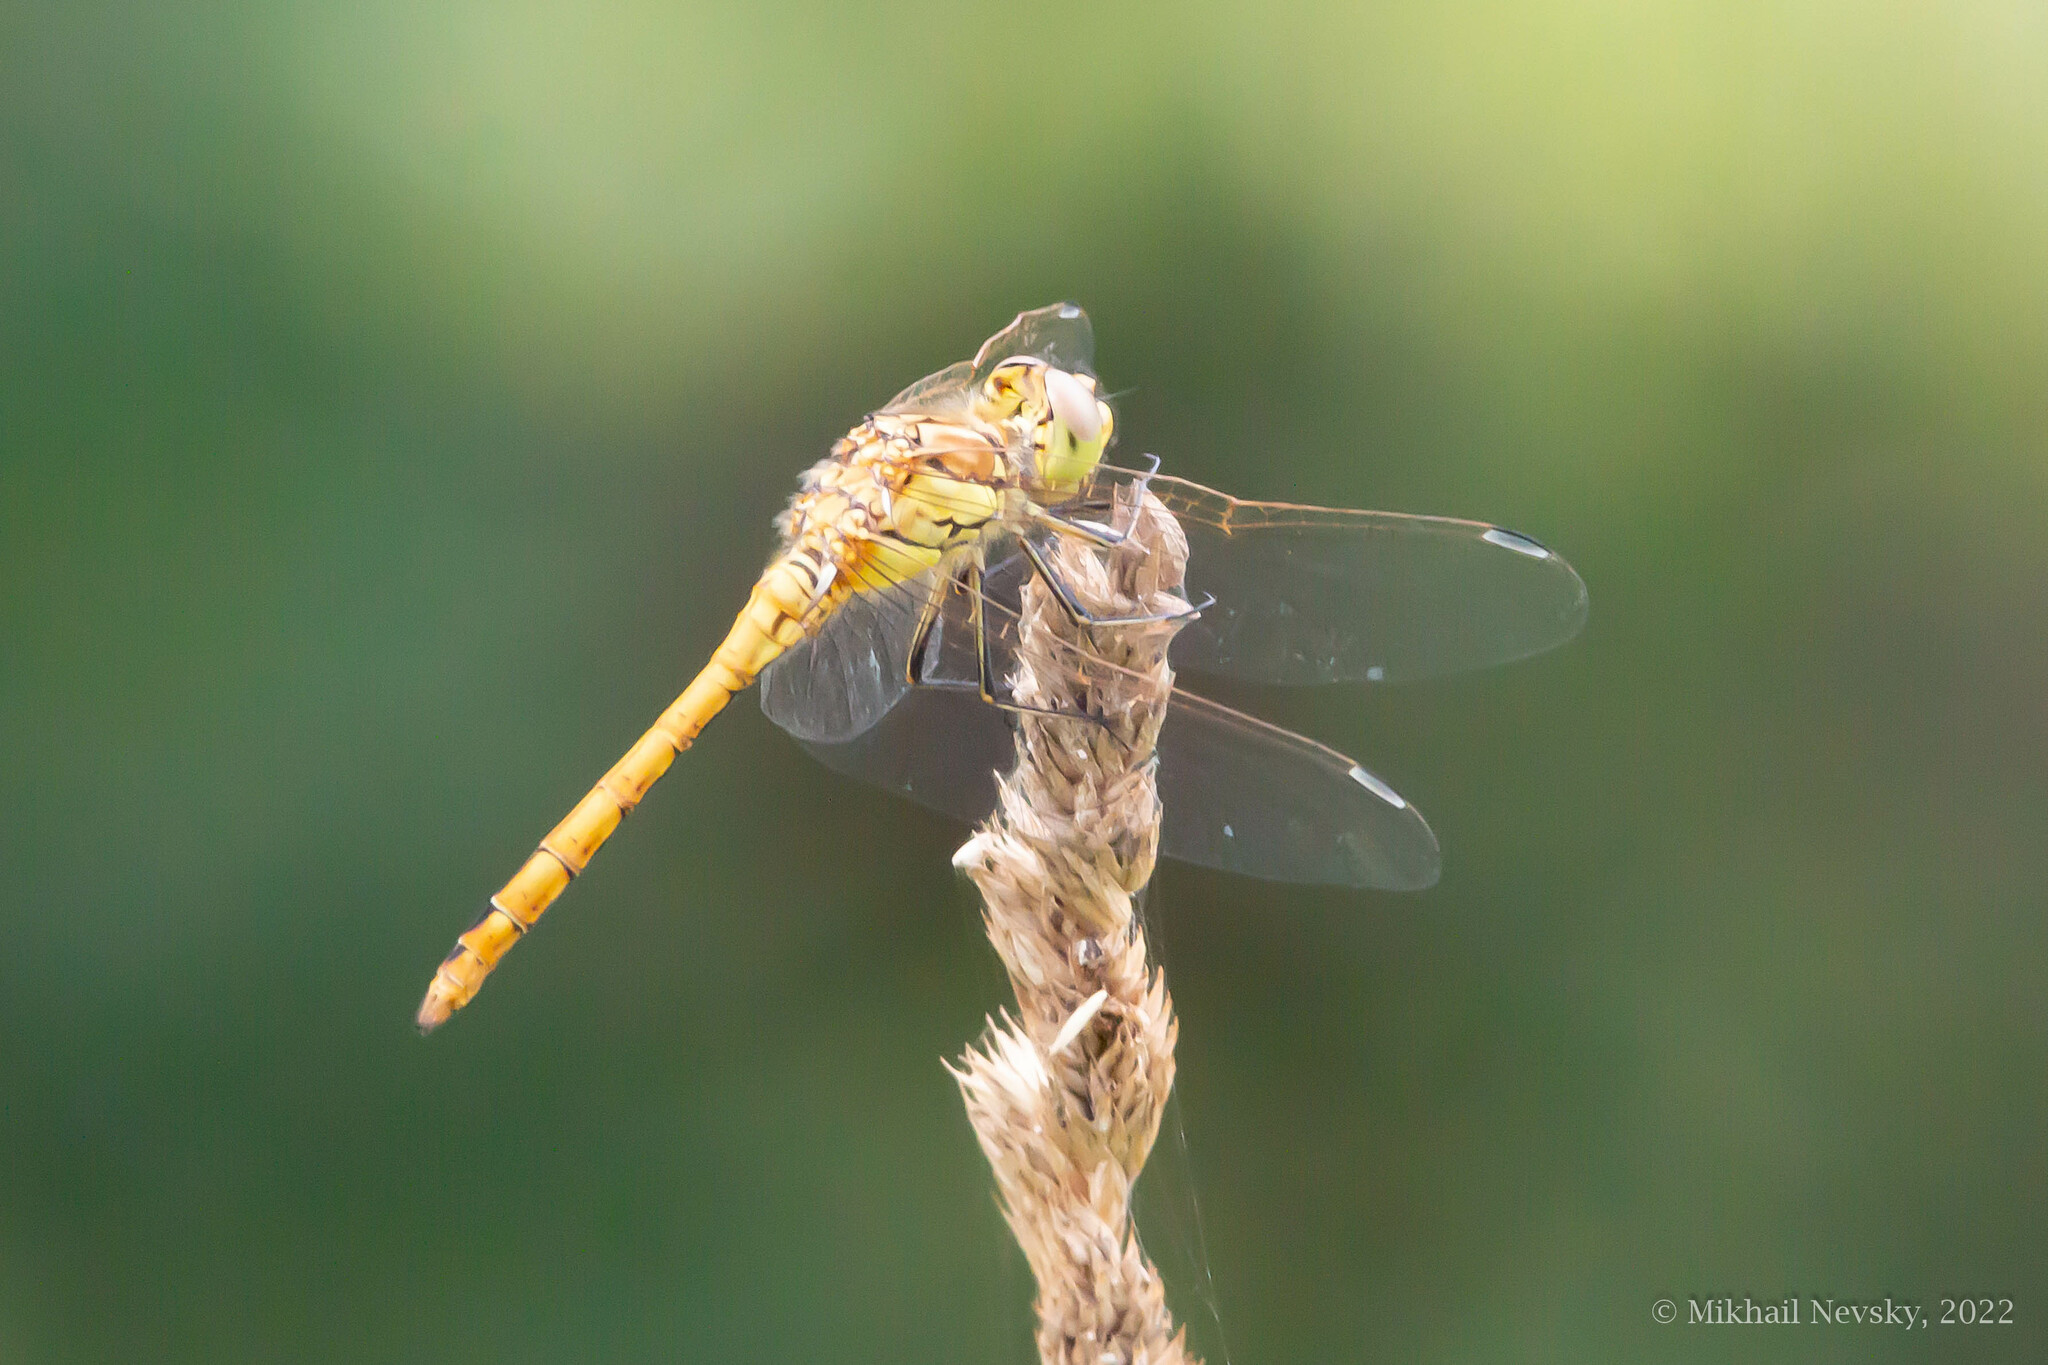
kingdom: Animalia
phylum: Arthropoda
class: Insecta
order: Odonata
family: Libellulidae
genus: Sympetrum
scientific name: Sympetrum vulgatum
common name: Vagrant darter
